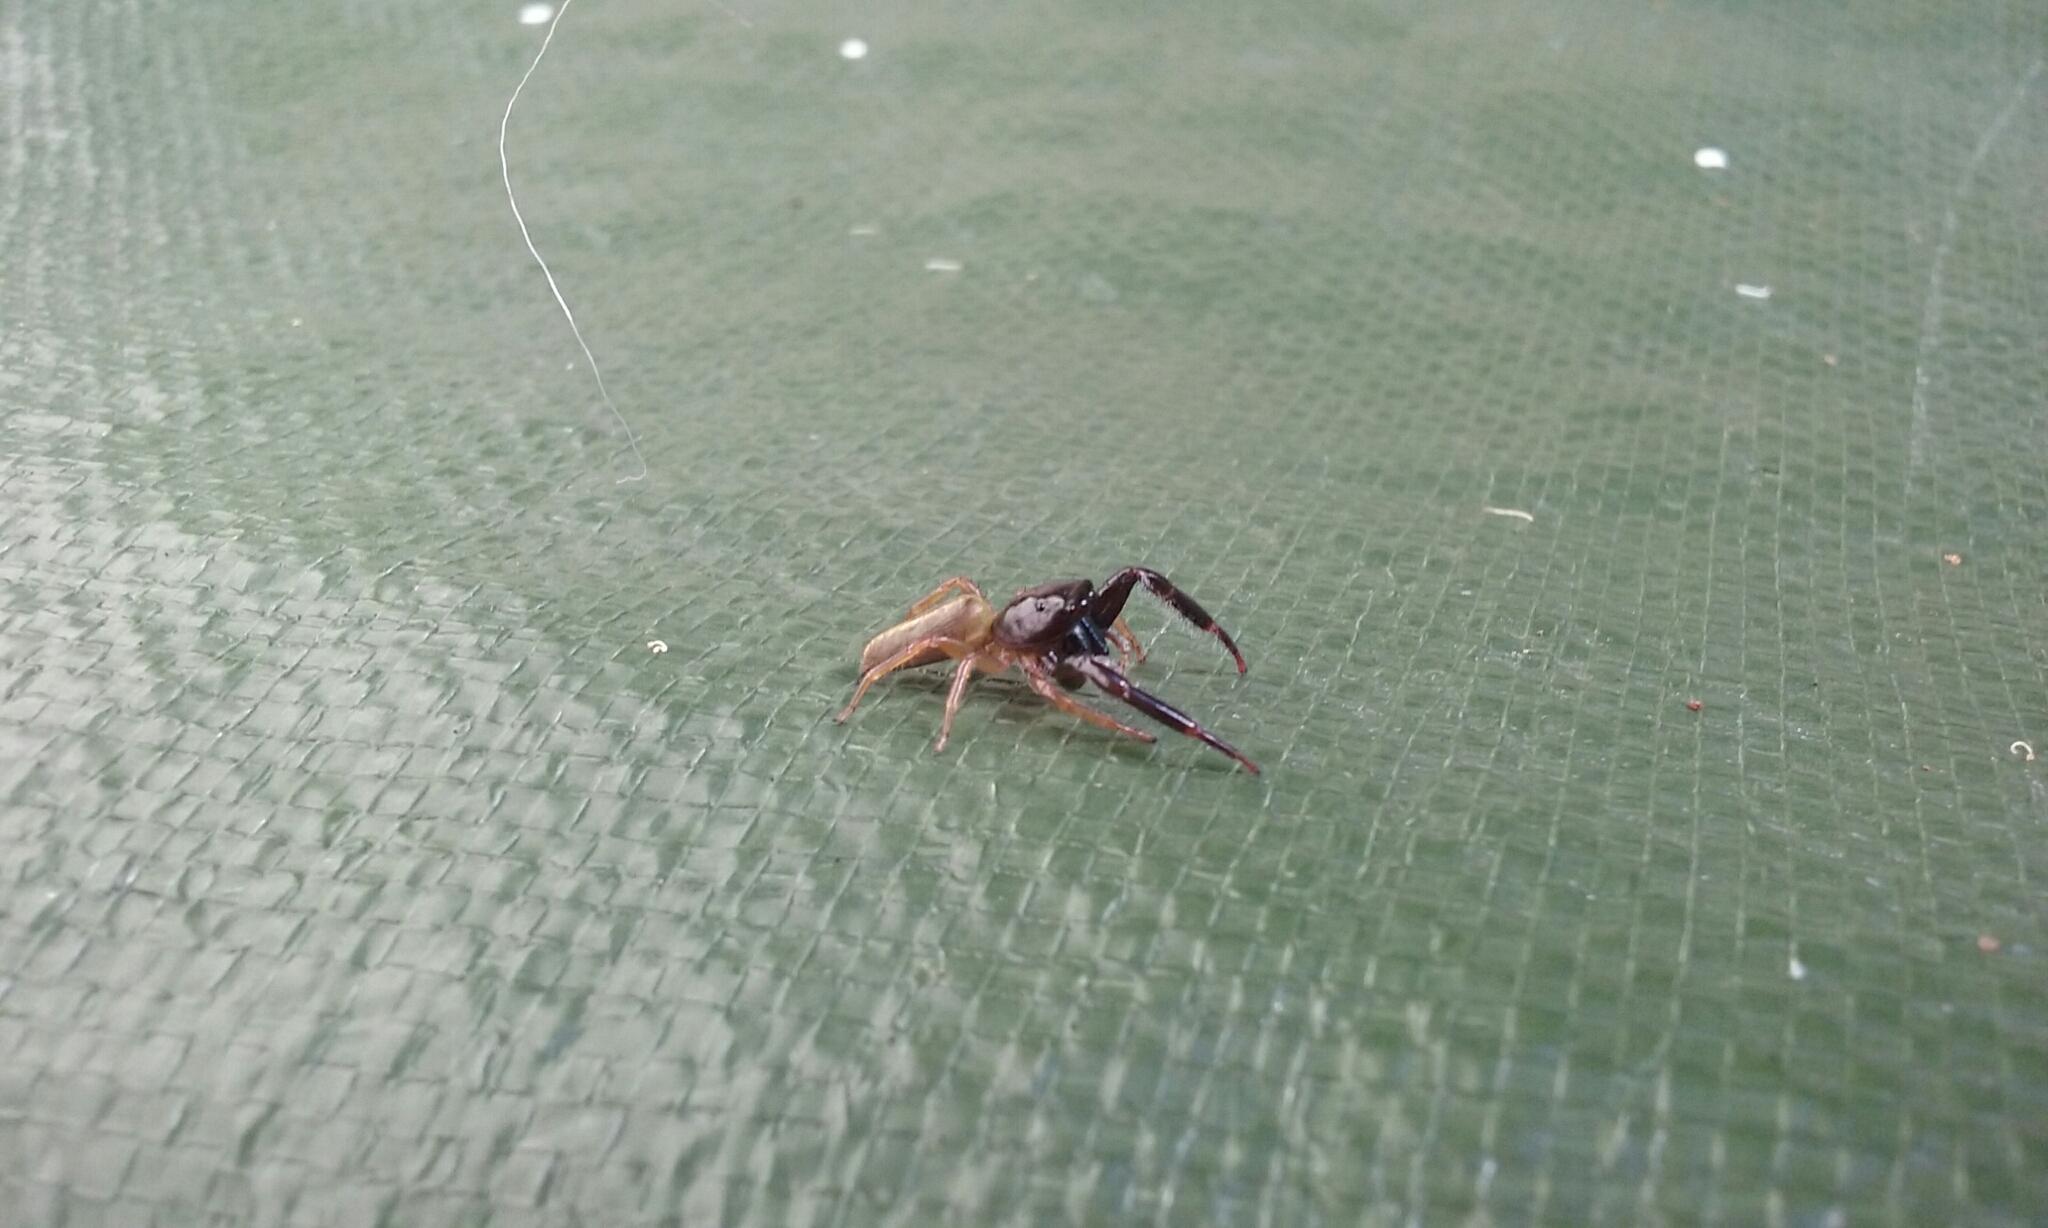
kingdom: Animalia
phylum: Arthropoda
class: Arachnida
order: Araneae
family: Salticidae
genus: Trite
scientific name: Trite planiceps
